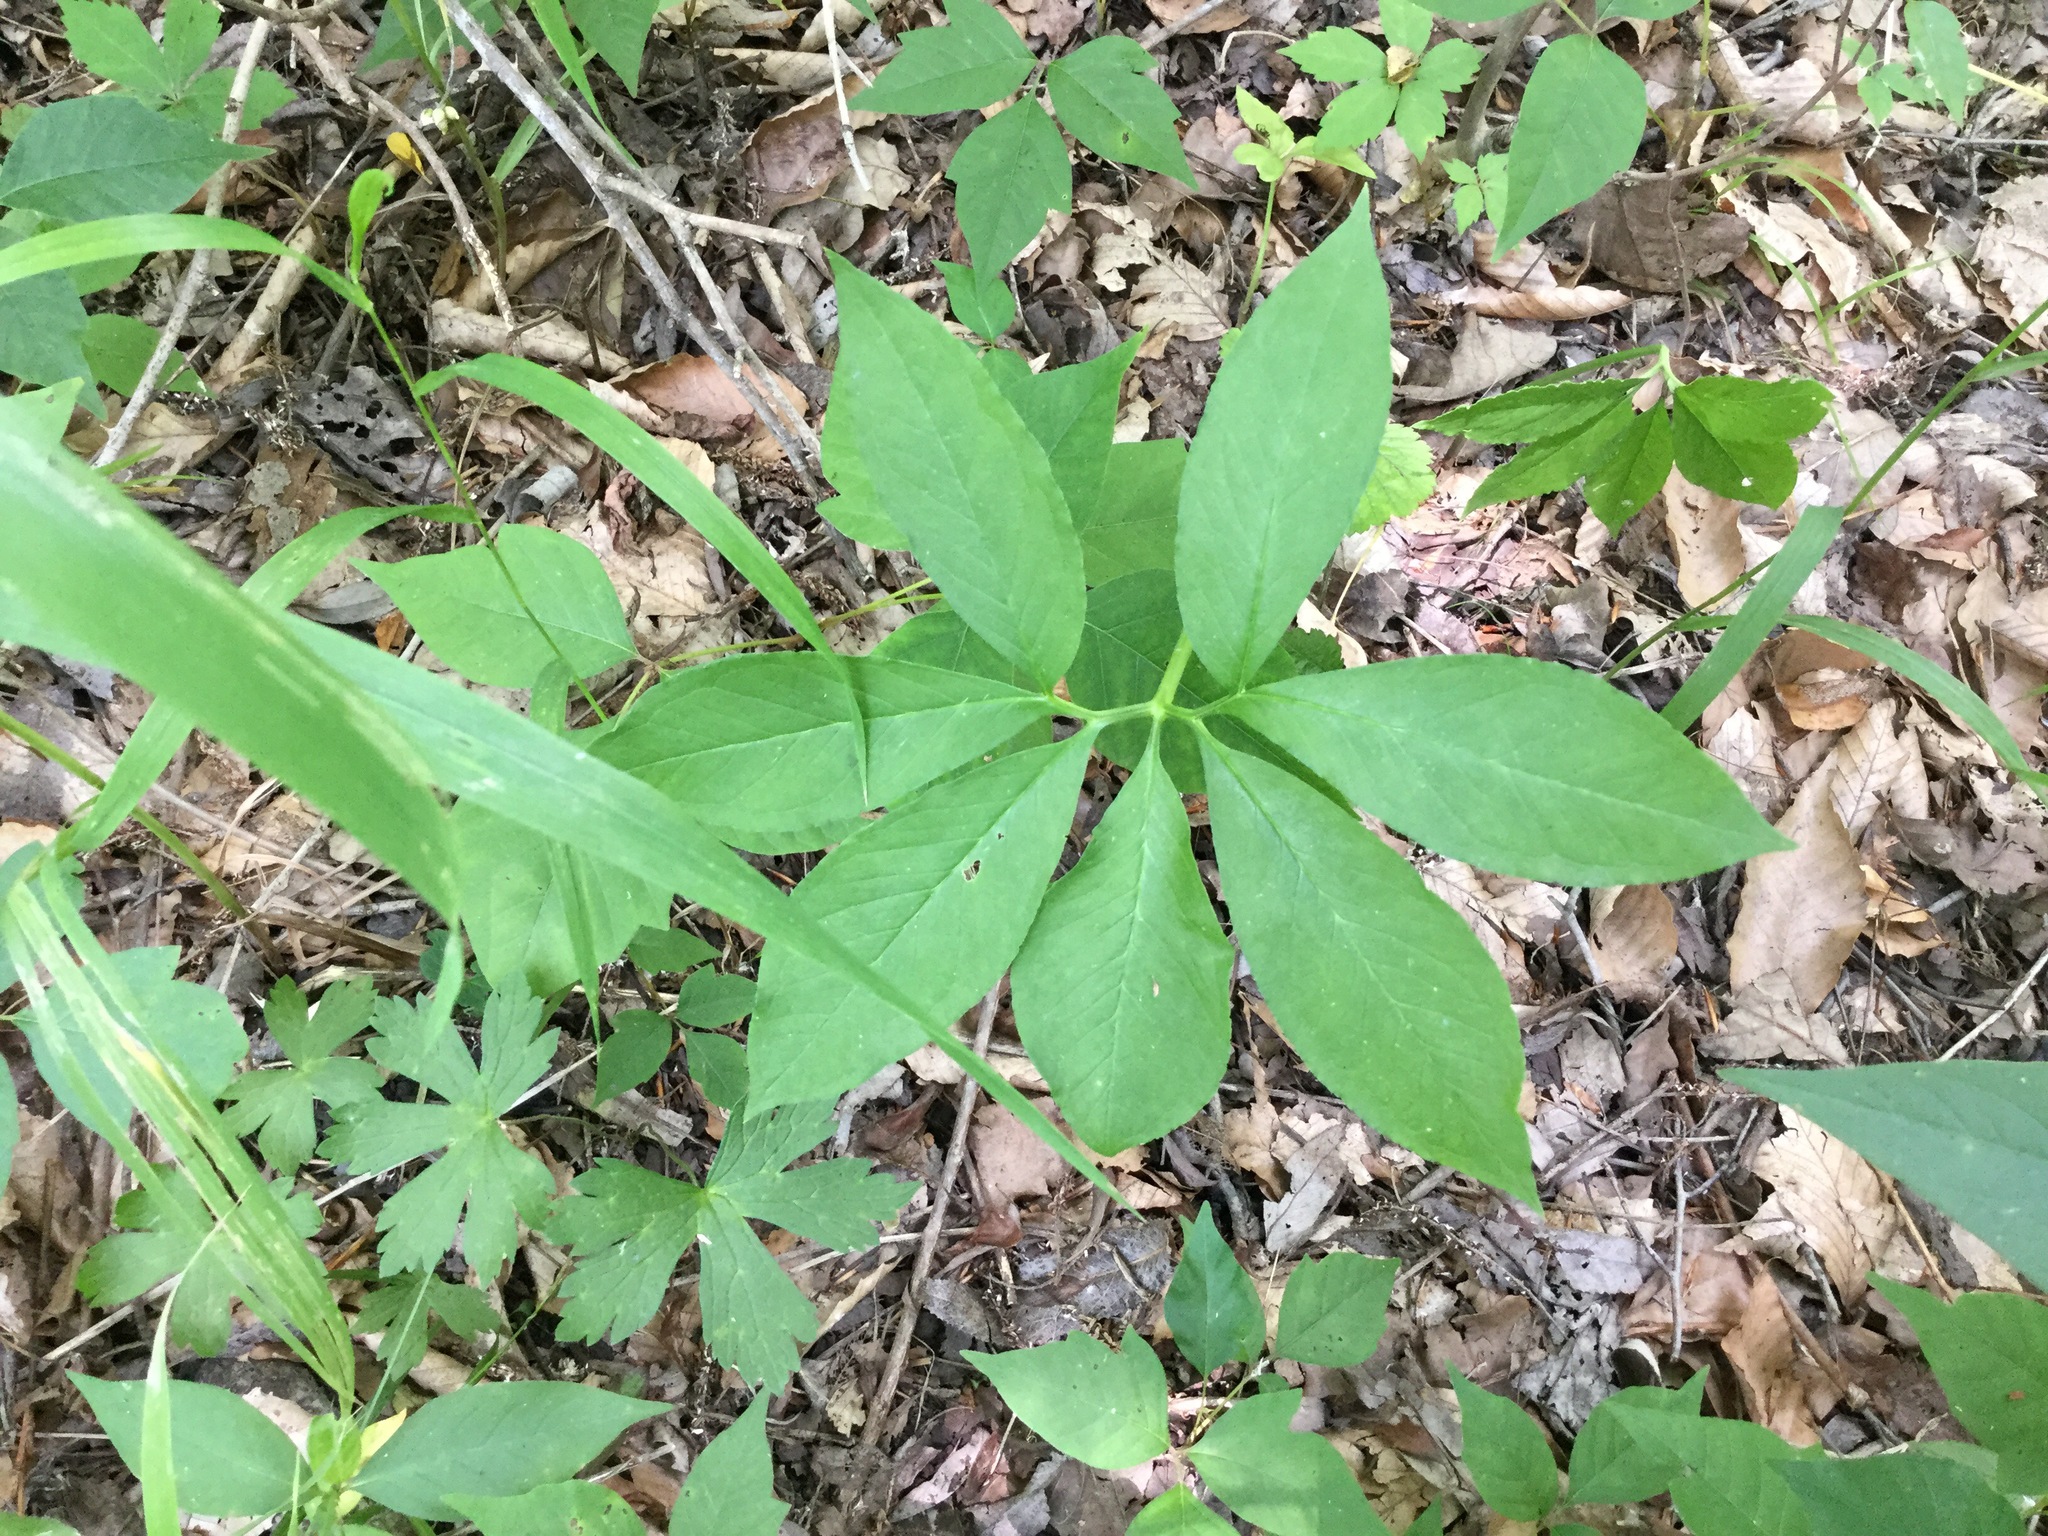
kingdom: Plantae
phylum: Tracheophyta
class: Liliopsida
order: Alismatales
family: Araceae
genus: Arisaema
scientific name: Arisaema dracontium
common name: Dragon-arum
